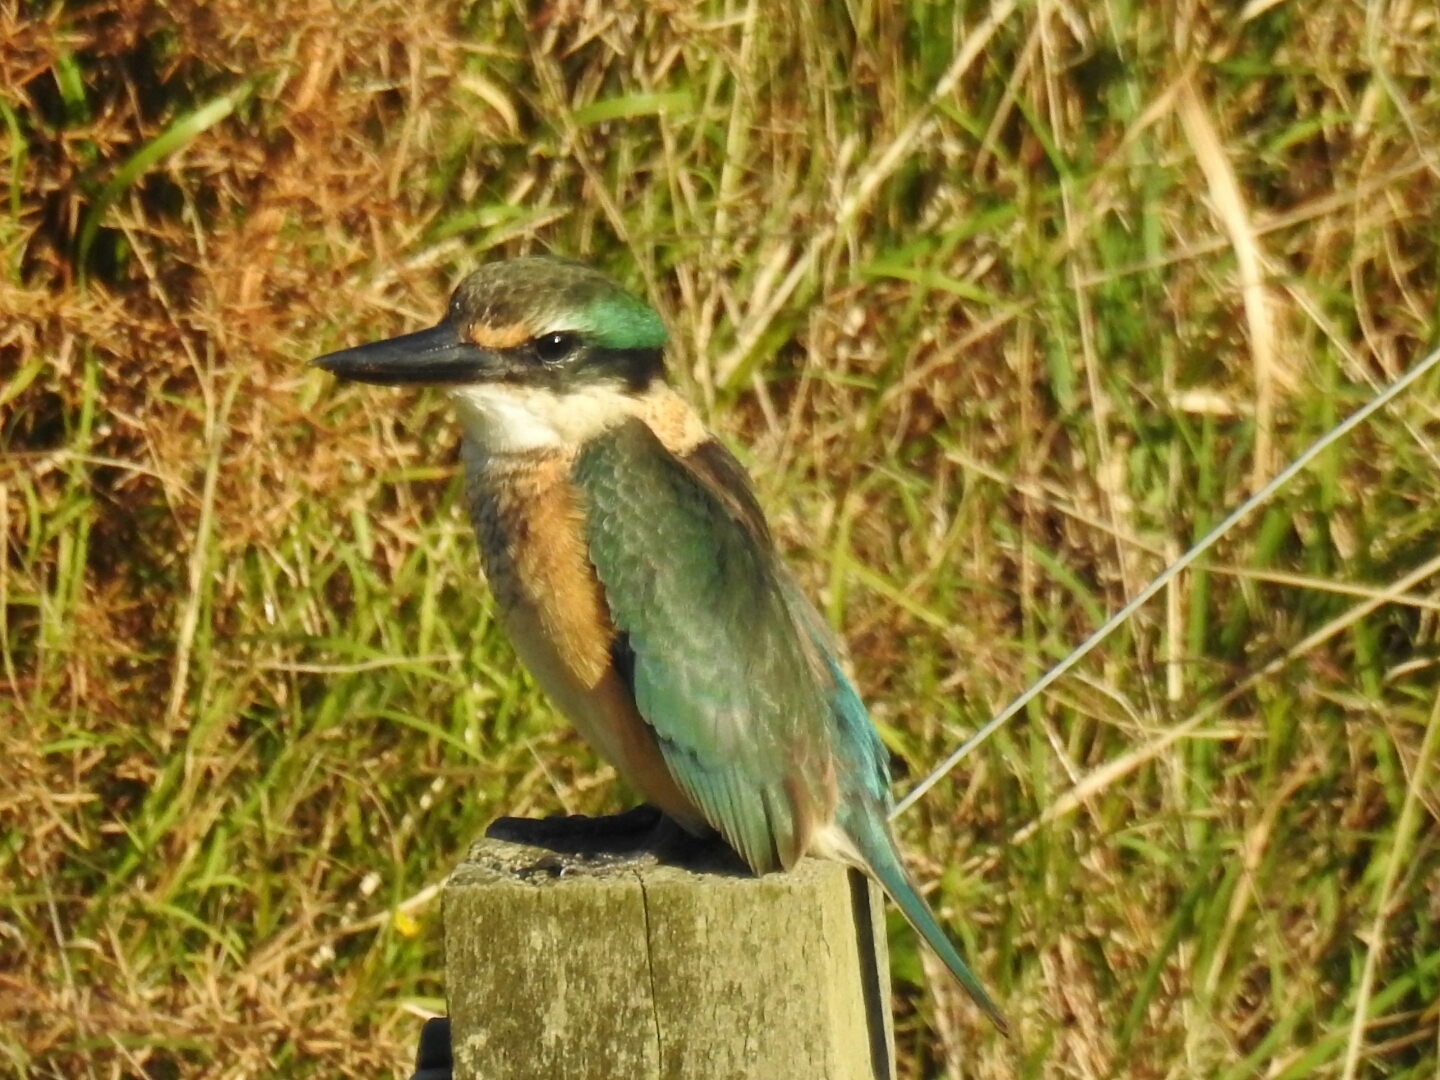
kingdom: Animalia
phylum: Chordata
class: Aves
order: Coraciiformes
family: Alcedinidae
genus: Todiramphus
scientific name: Todiramphus sanctus
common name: Sacred kingfisher
